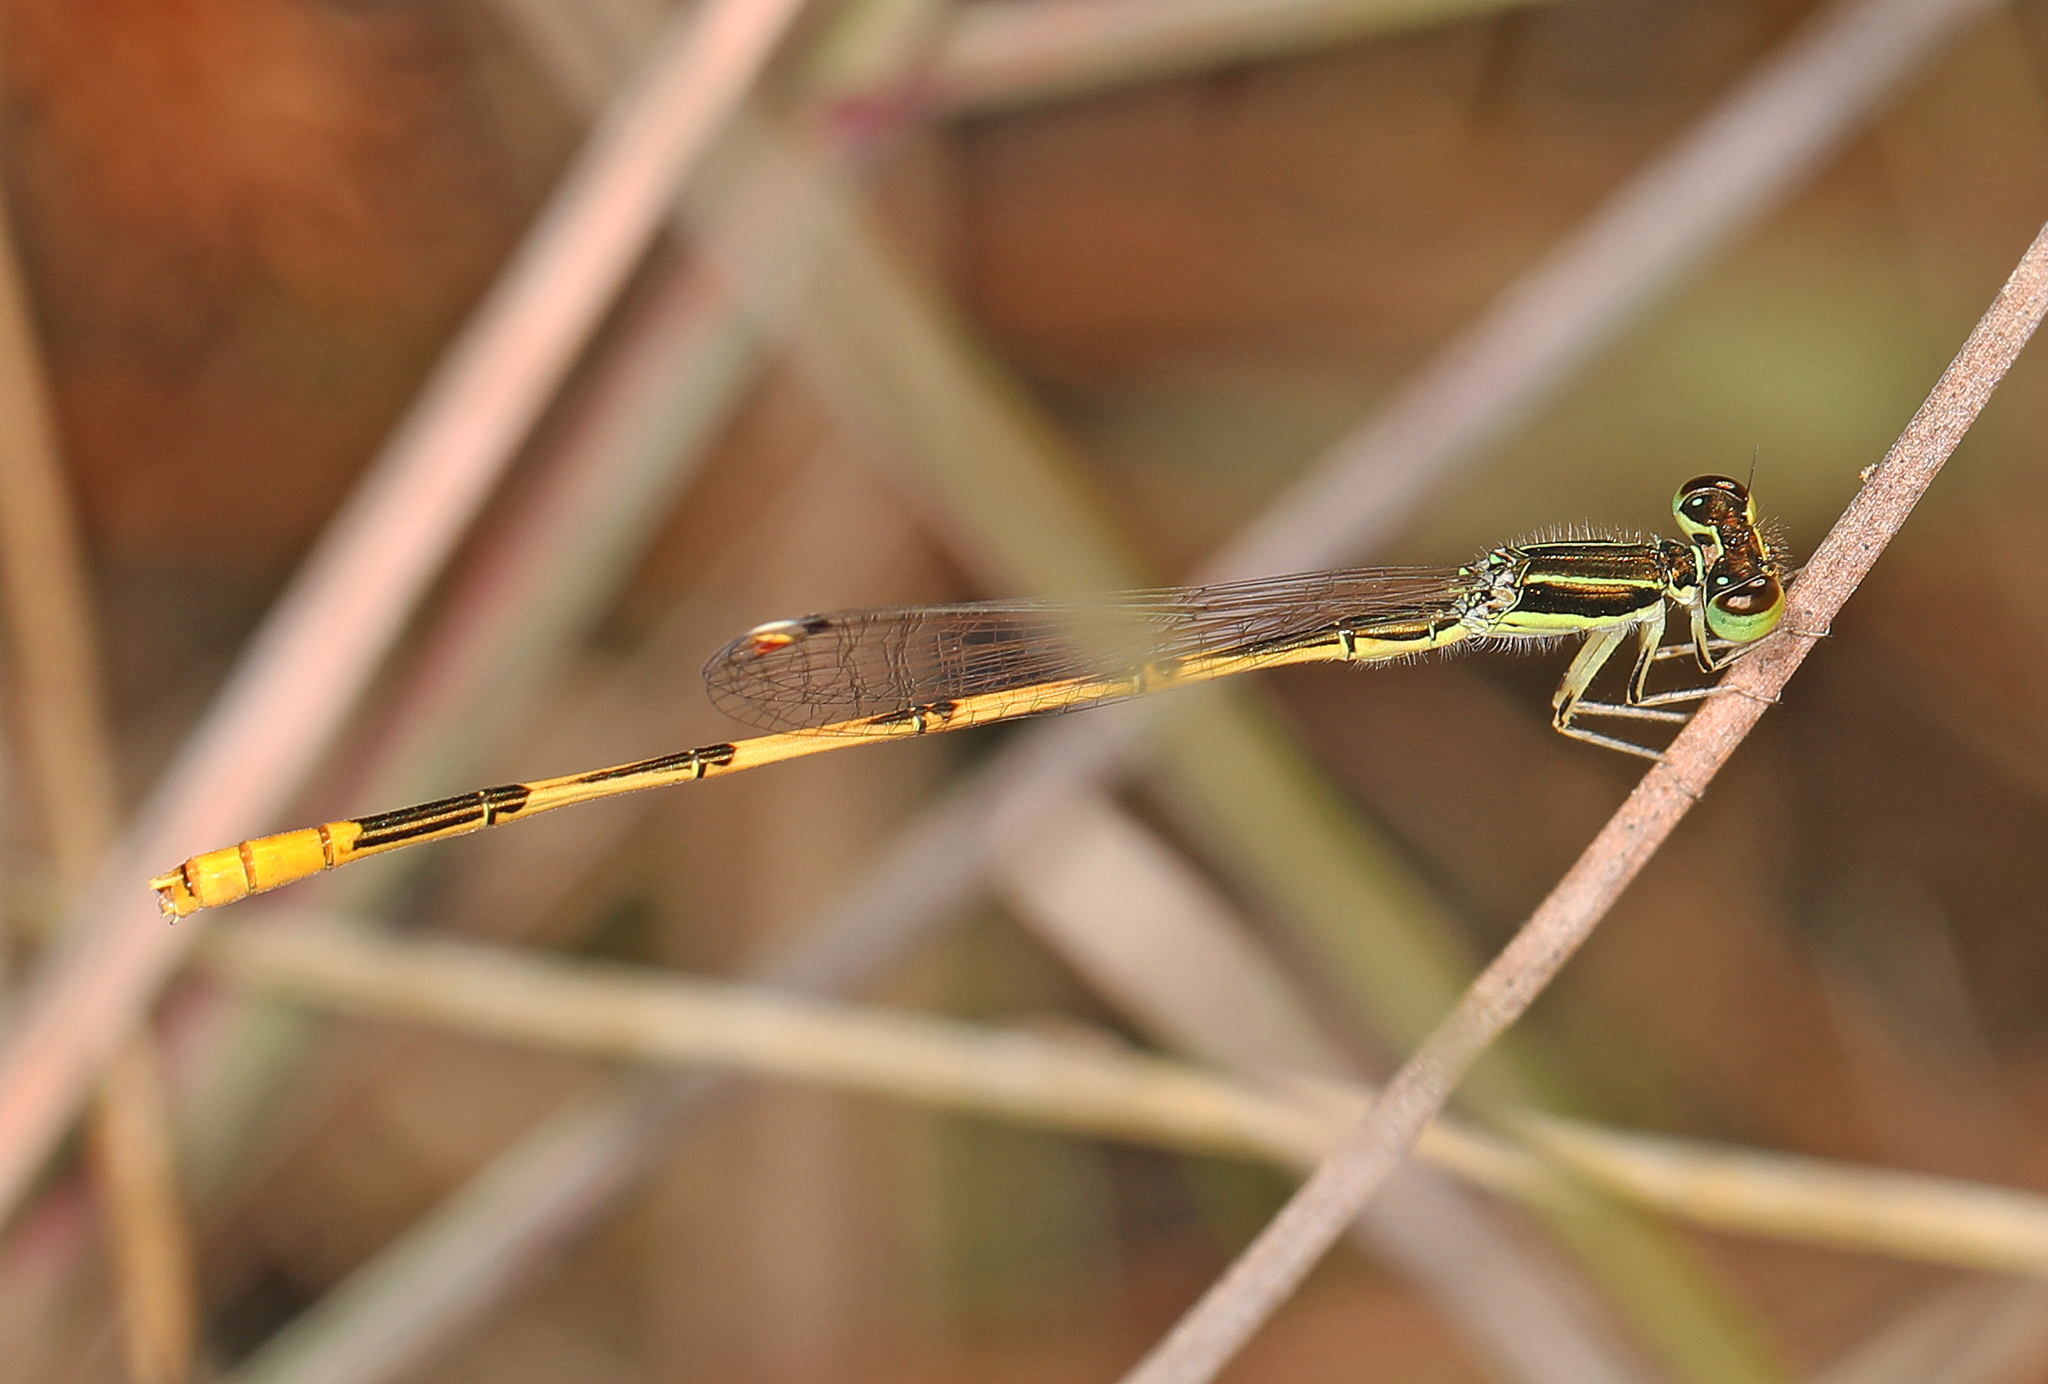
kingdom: Animalia
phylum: Arthropoda
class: Insecta
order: Odonata
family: Coenagrionidae
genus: Ischnura
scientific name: Ischnura hastata
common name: Citrine forktail
